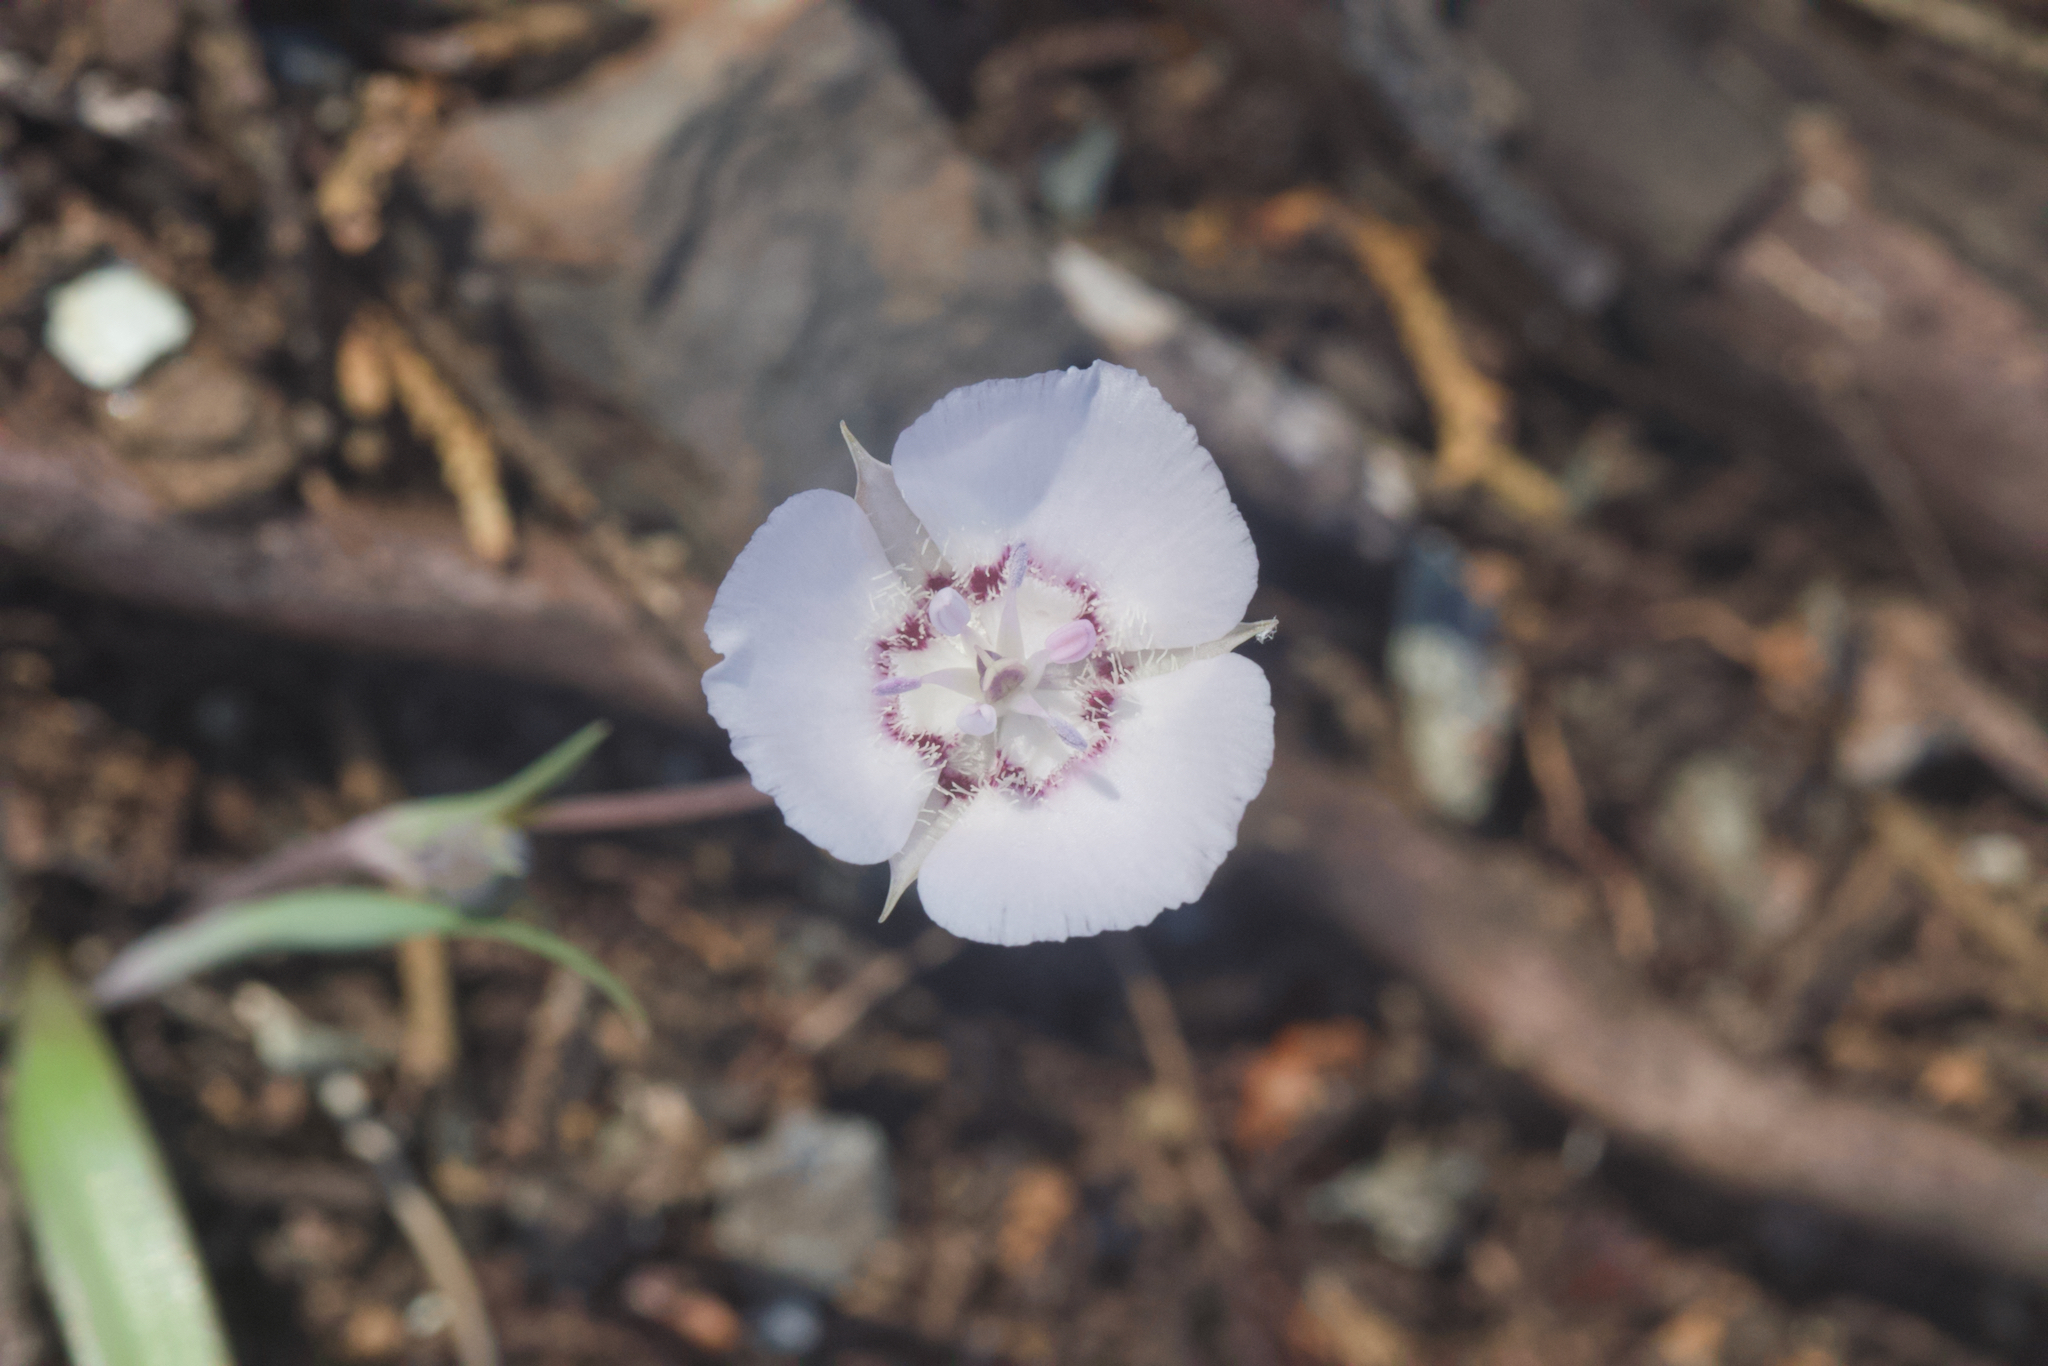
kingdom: Plantae
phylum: Tracheophyta
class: Liliopsida
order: Liliales
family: Liliaceae
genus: Calochortus
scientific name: Calochortus umbellatus
